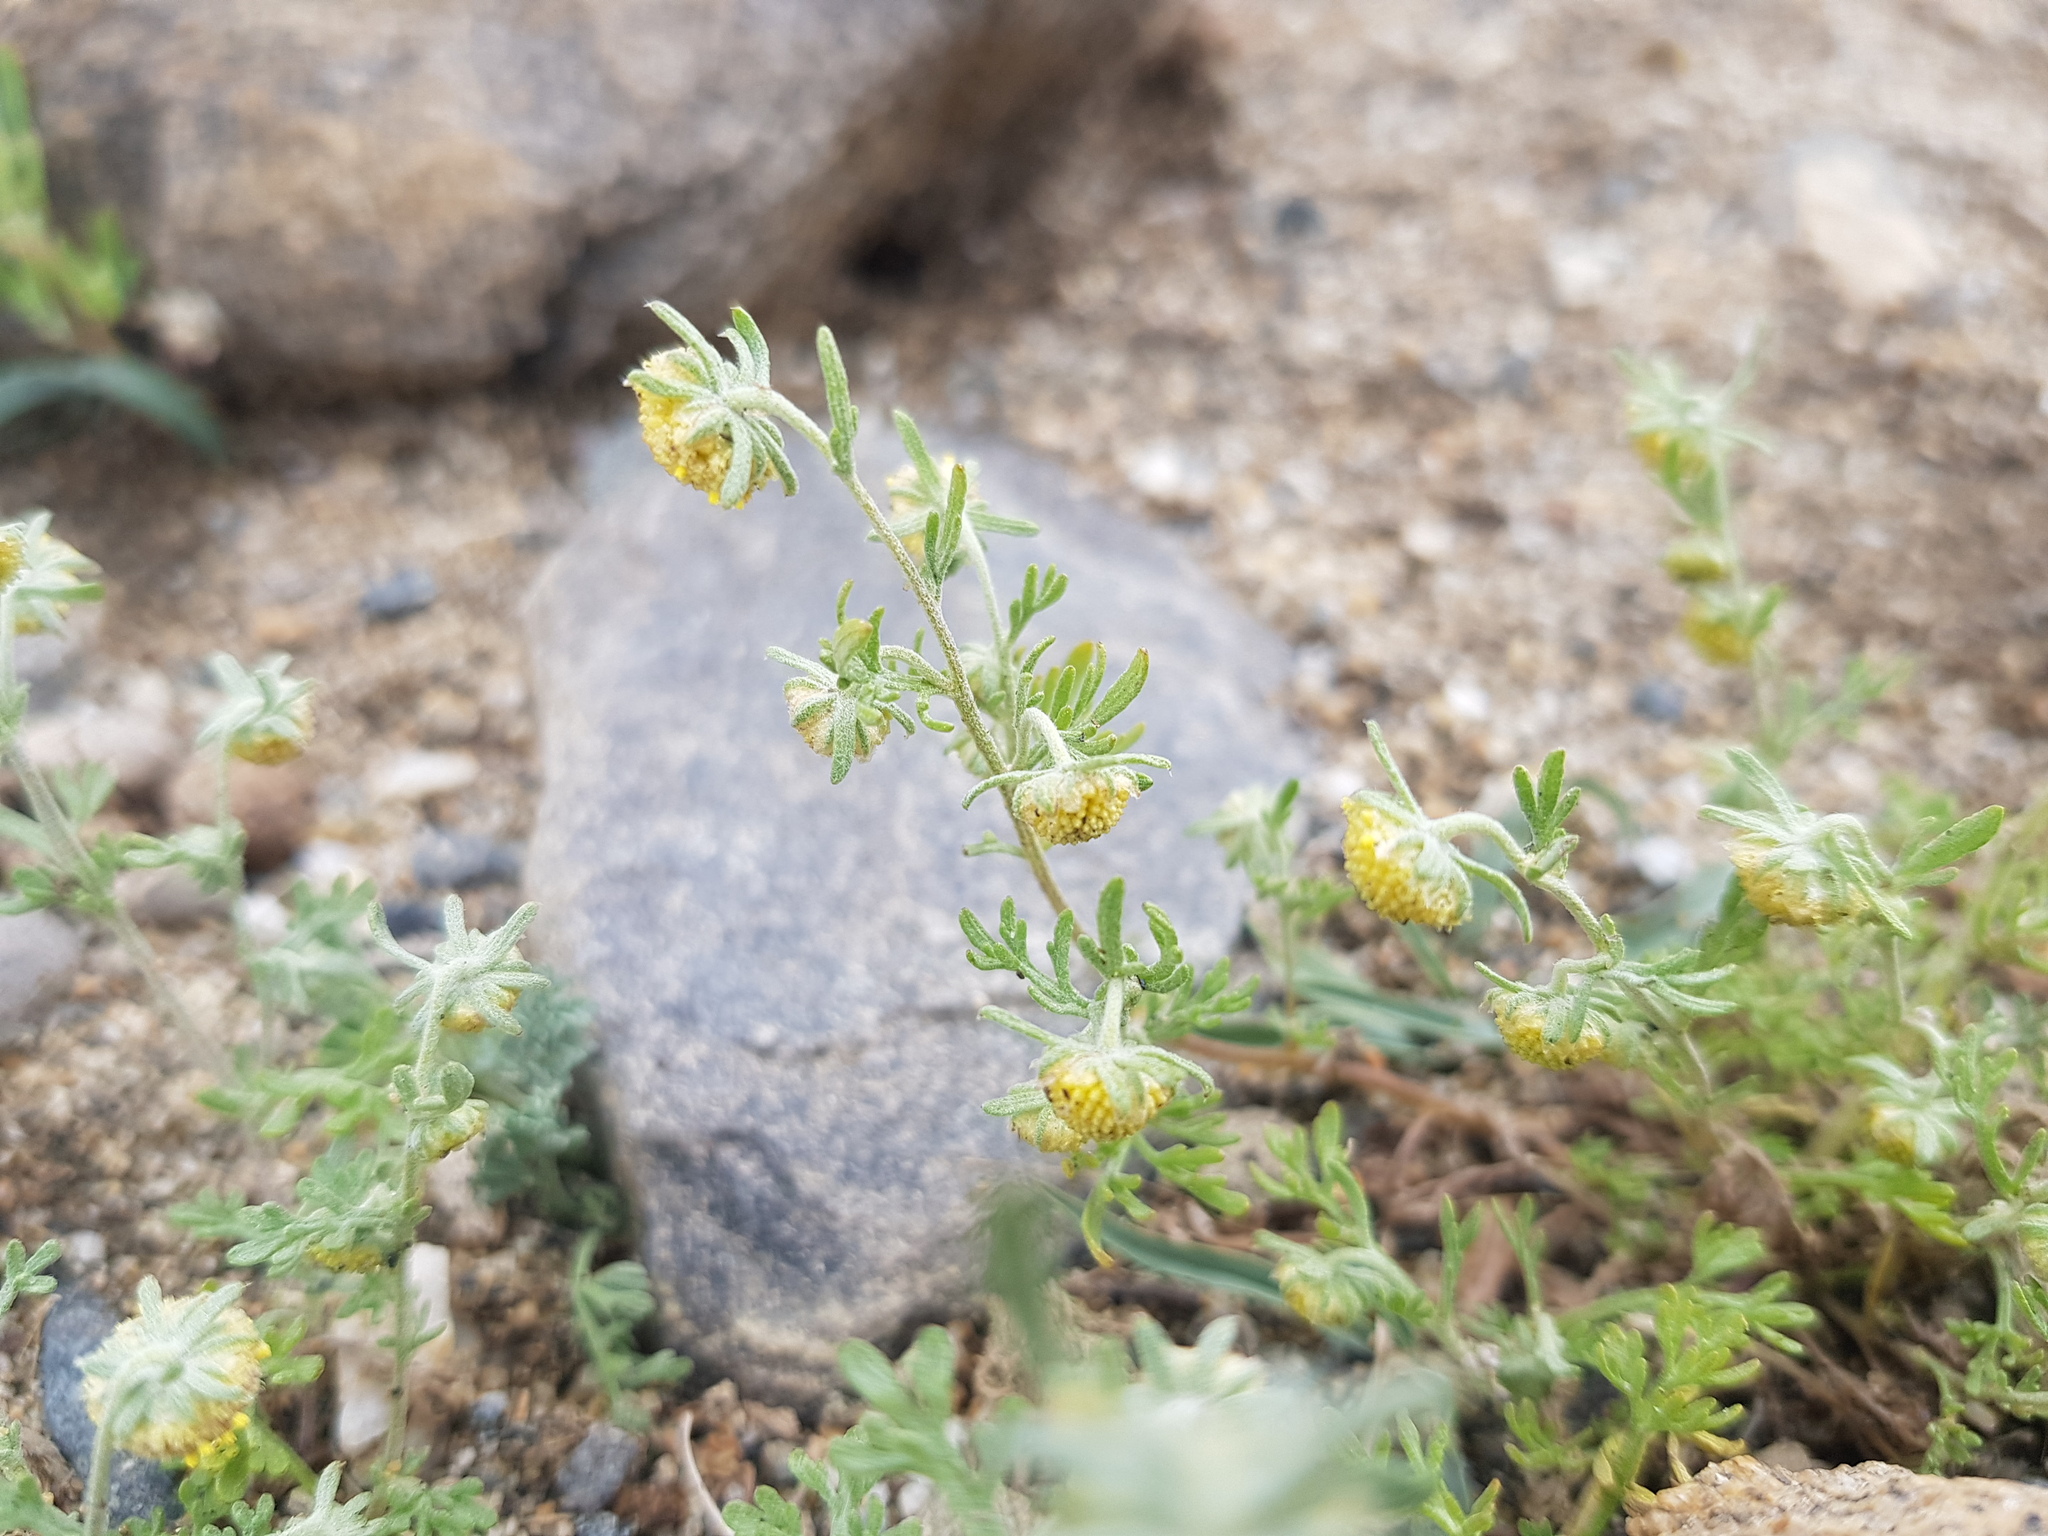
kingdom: Plantae
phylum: Tracheophyta
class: Magnoliopsida
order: Asterales
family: Asteraceae
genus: Artemisia
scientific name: Artemisia macrocephala
